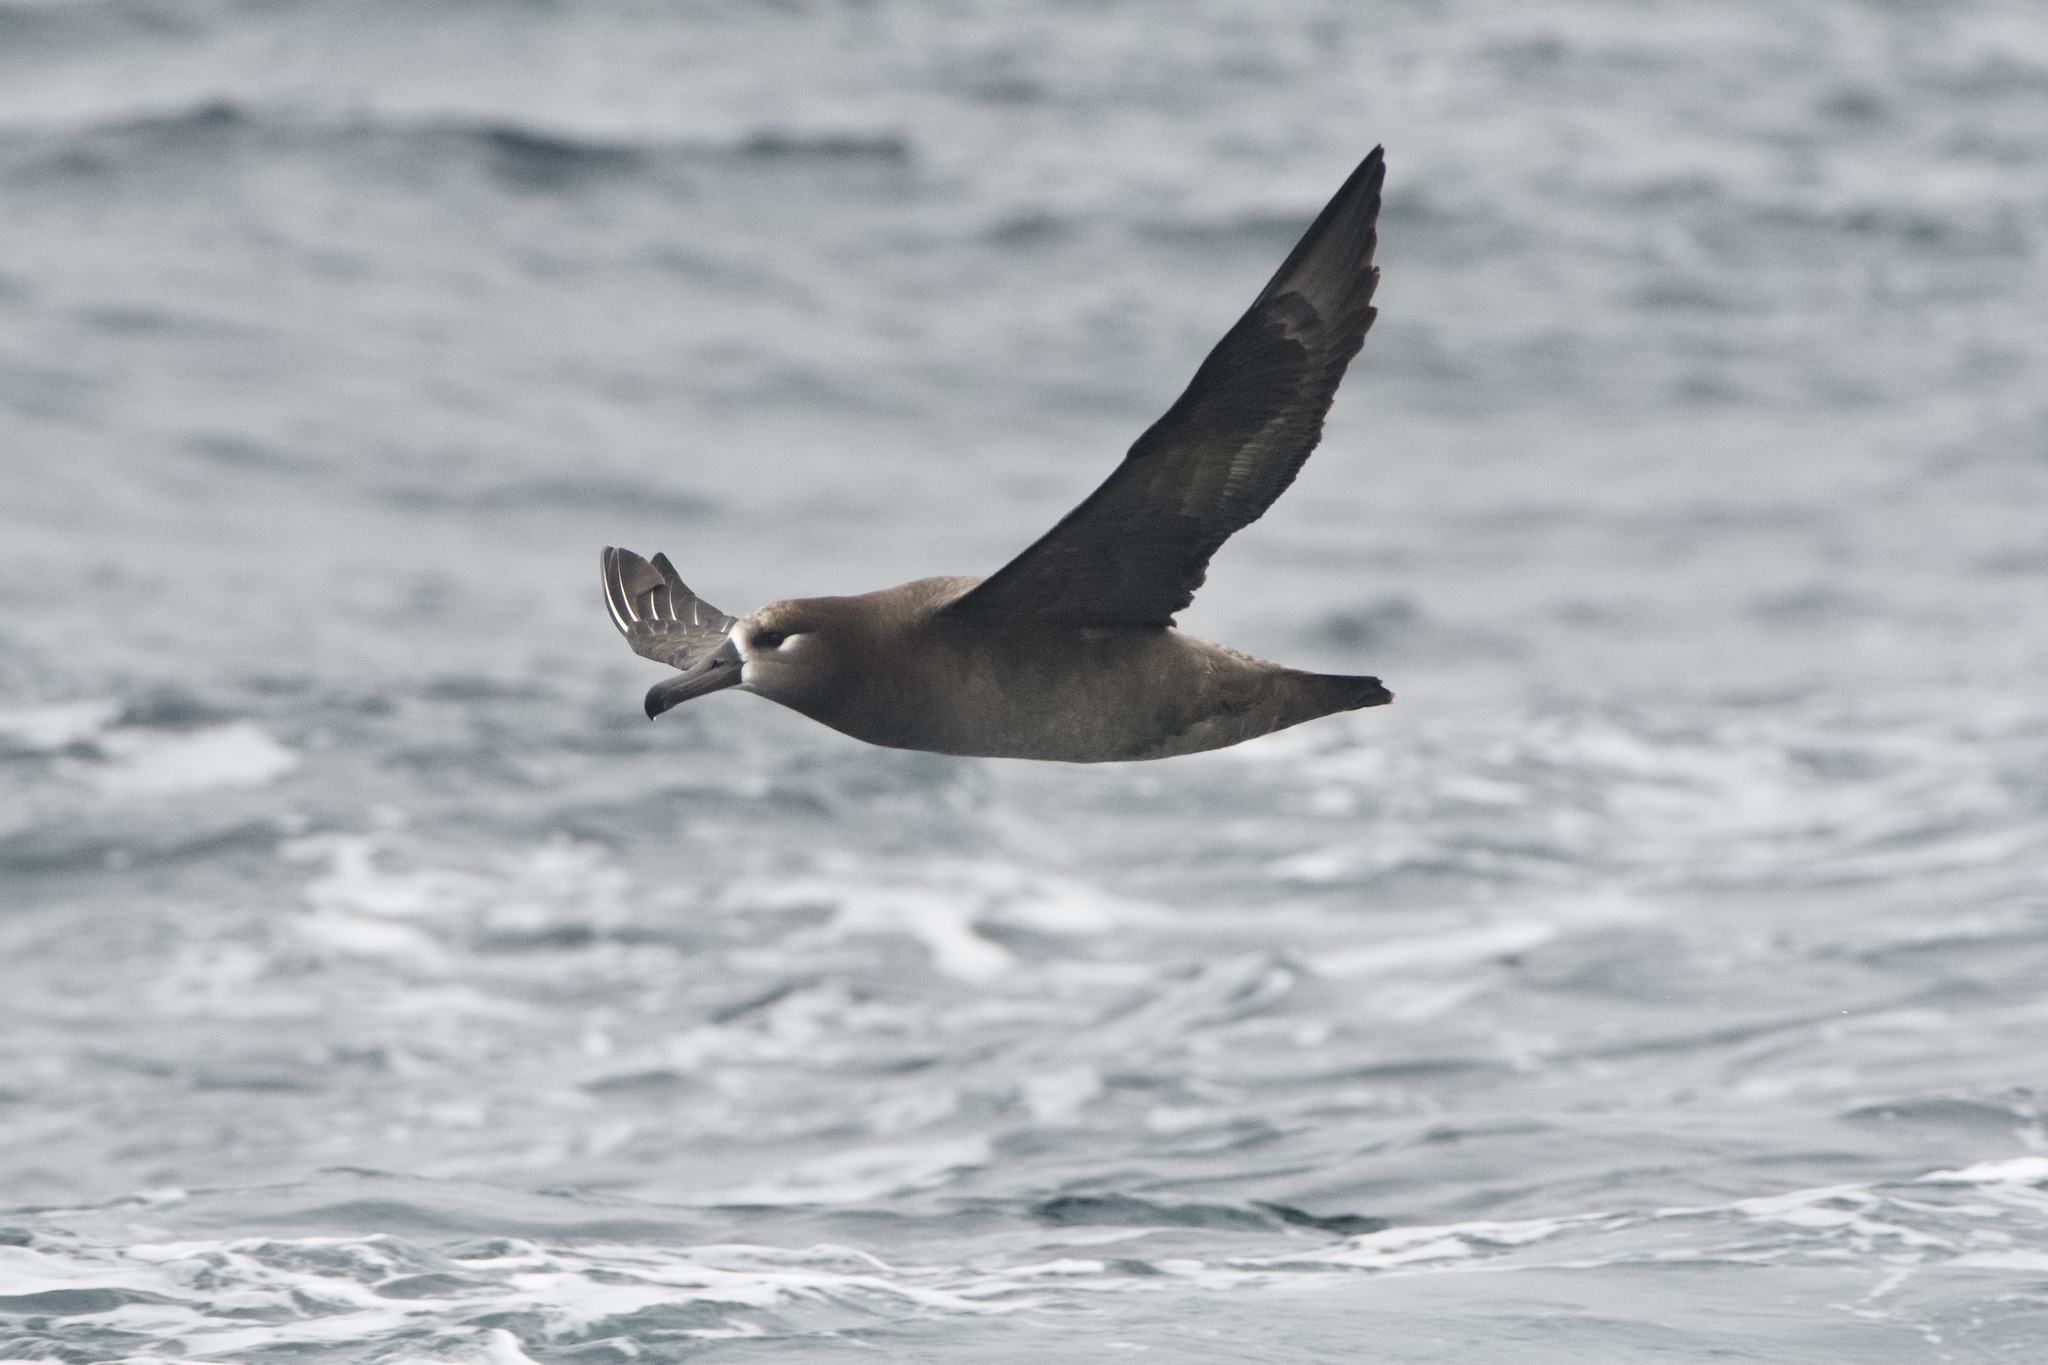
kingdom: Animalia
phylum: Chordata
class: Aves
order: Procellariiformes
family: Diomedeidae
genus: Phoebastria
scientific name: Phoebastria nigripes
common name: Black-footed albatross
